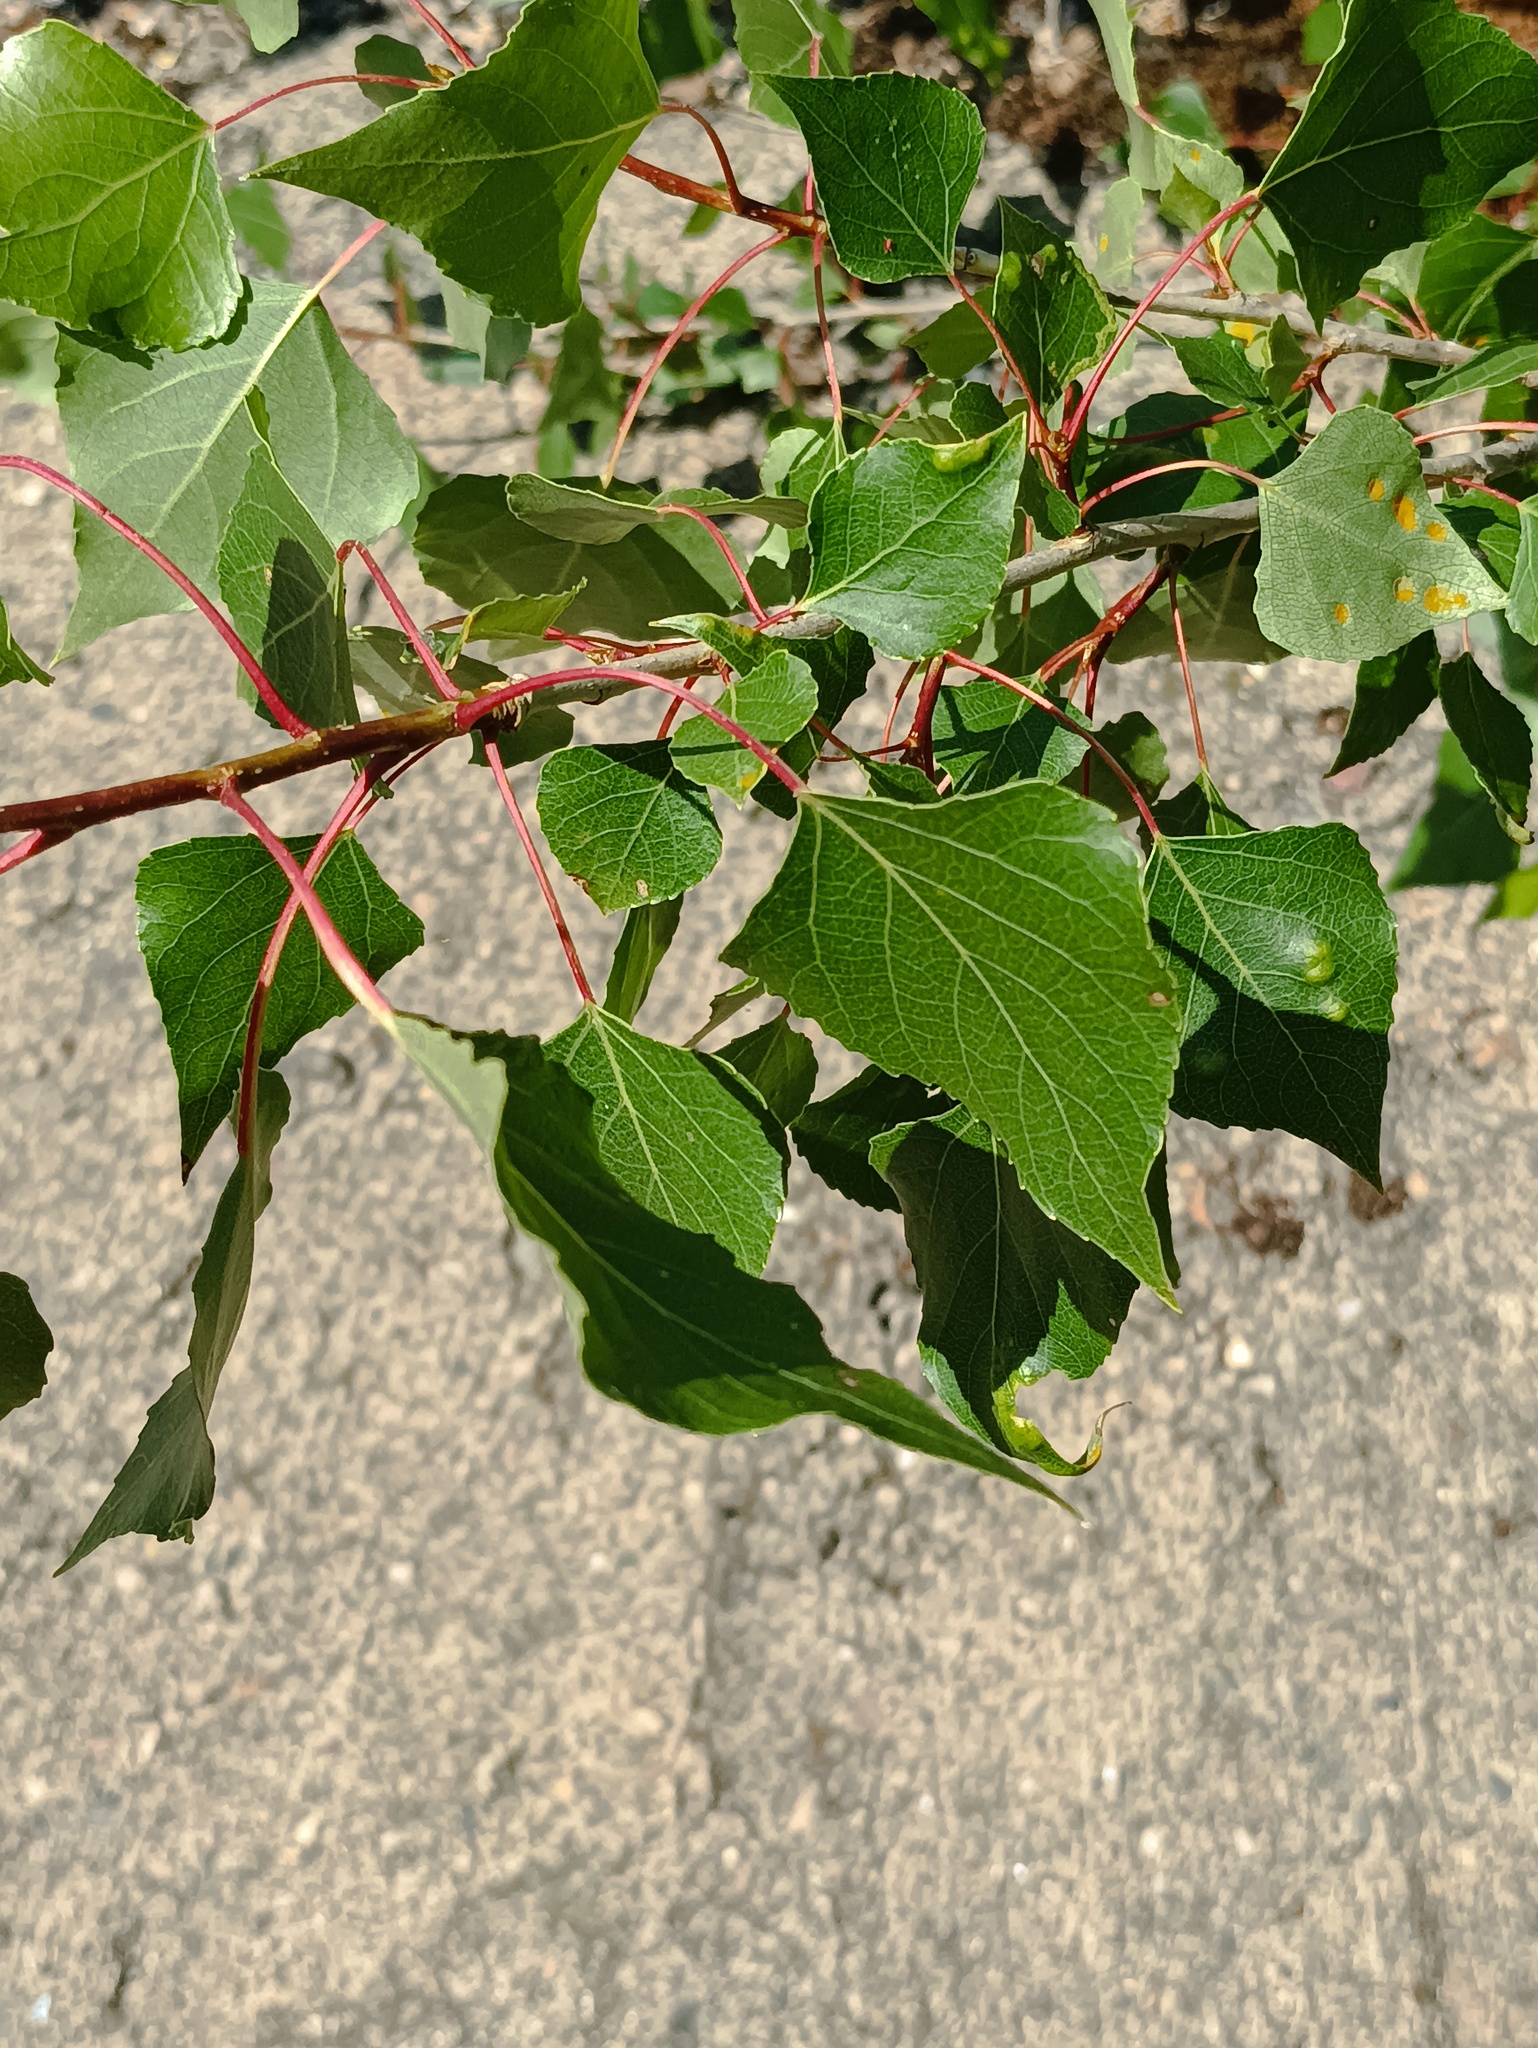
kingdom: Plantae
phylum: Tracheophyta
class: Magnoliopsida
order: Malpighiales
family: Salicaceae
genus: Populus
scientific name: Populus nigra
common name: Black poplar
